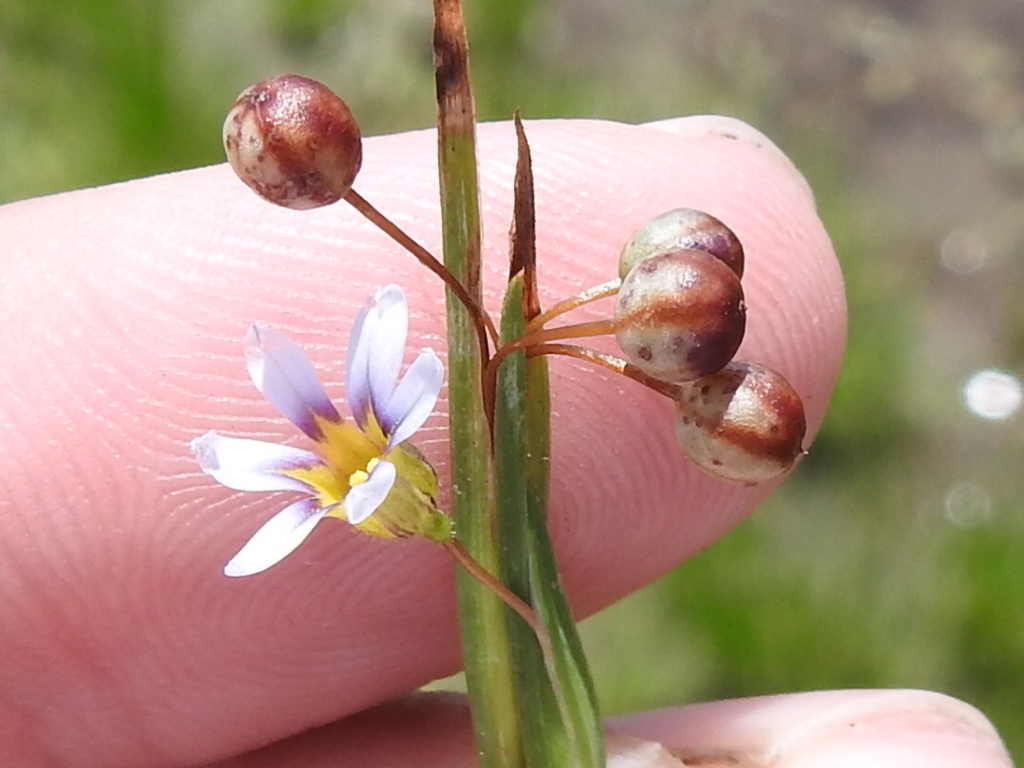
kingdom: Plantae
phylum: Tracheophyta
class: Liliopsida
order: Asparagales
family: Iridaceae
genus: Sisyrinchium
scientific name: Sisyrinchium micranthum
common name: Bermuda pigroot
